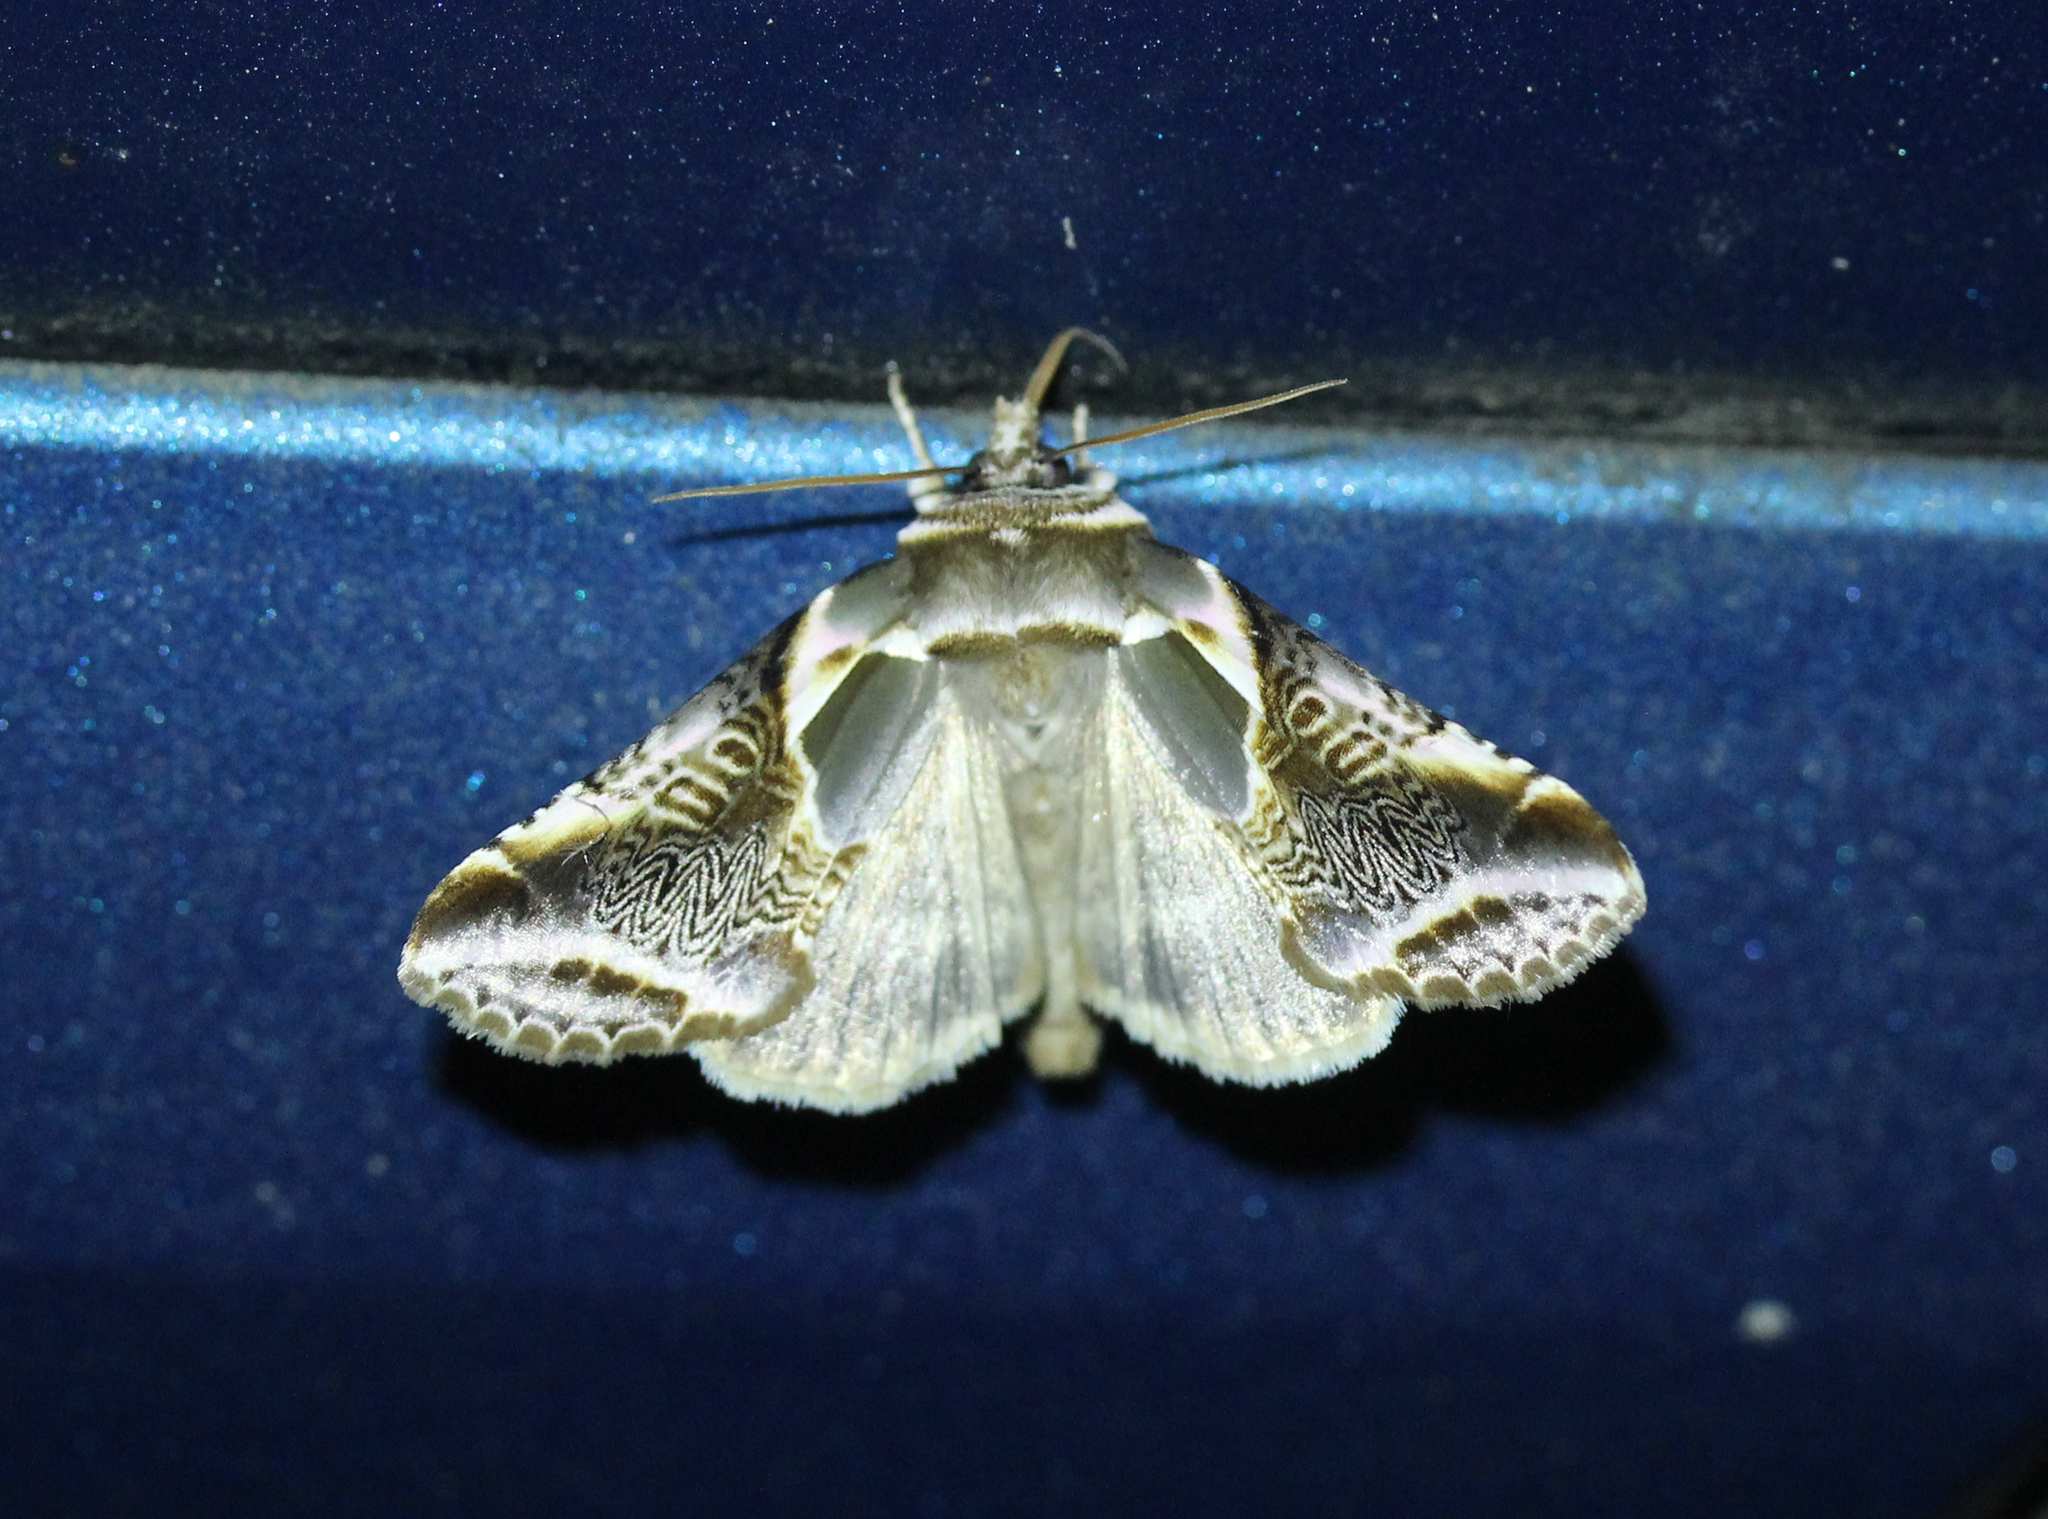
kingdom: Animalia
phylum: Arthropoda
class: Insecta
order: Lepidoptera
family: Drepanidae
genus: Habrosyne
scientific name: Habrosyne scripta
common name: Lettered habrosyne moth
